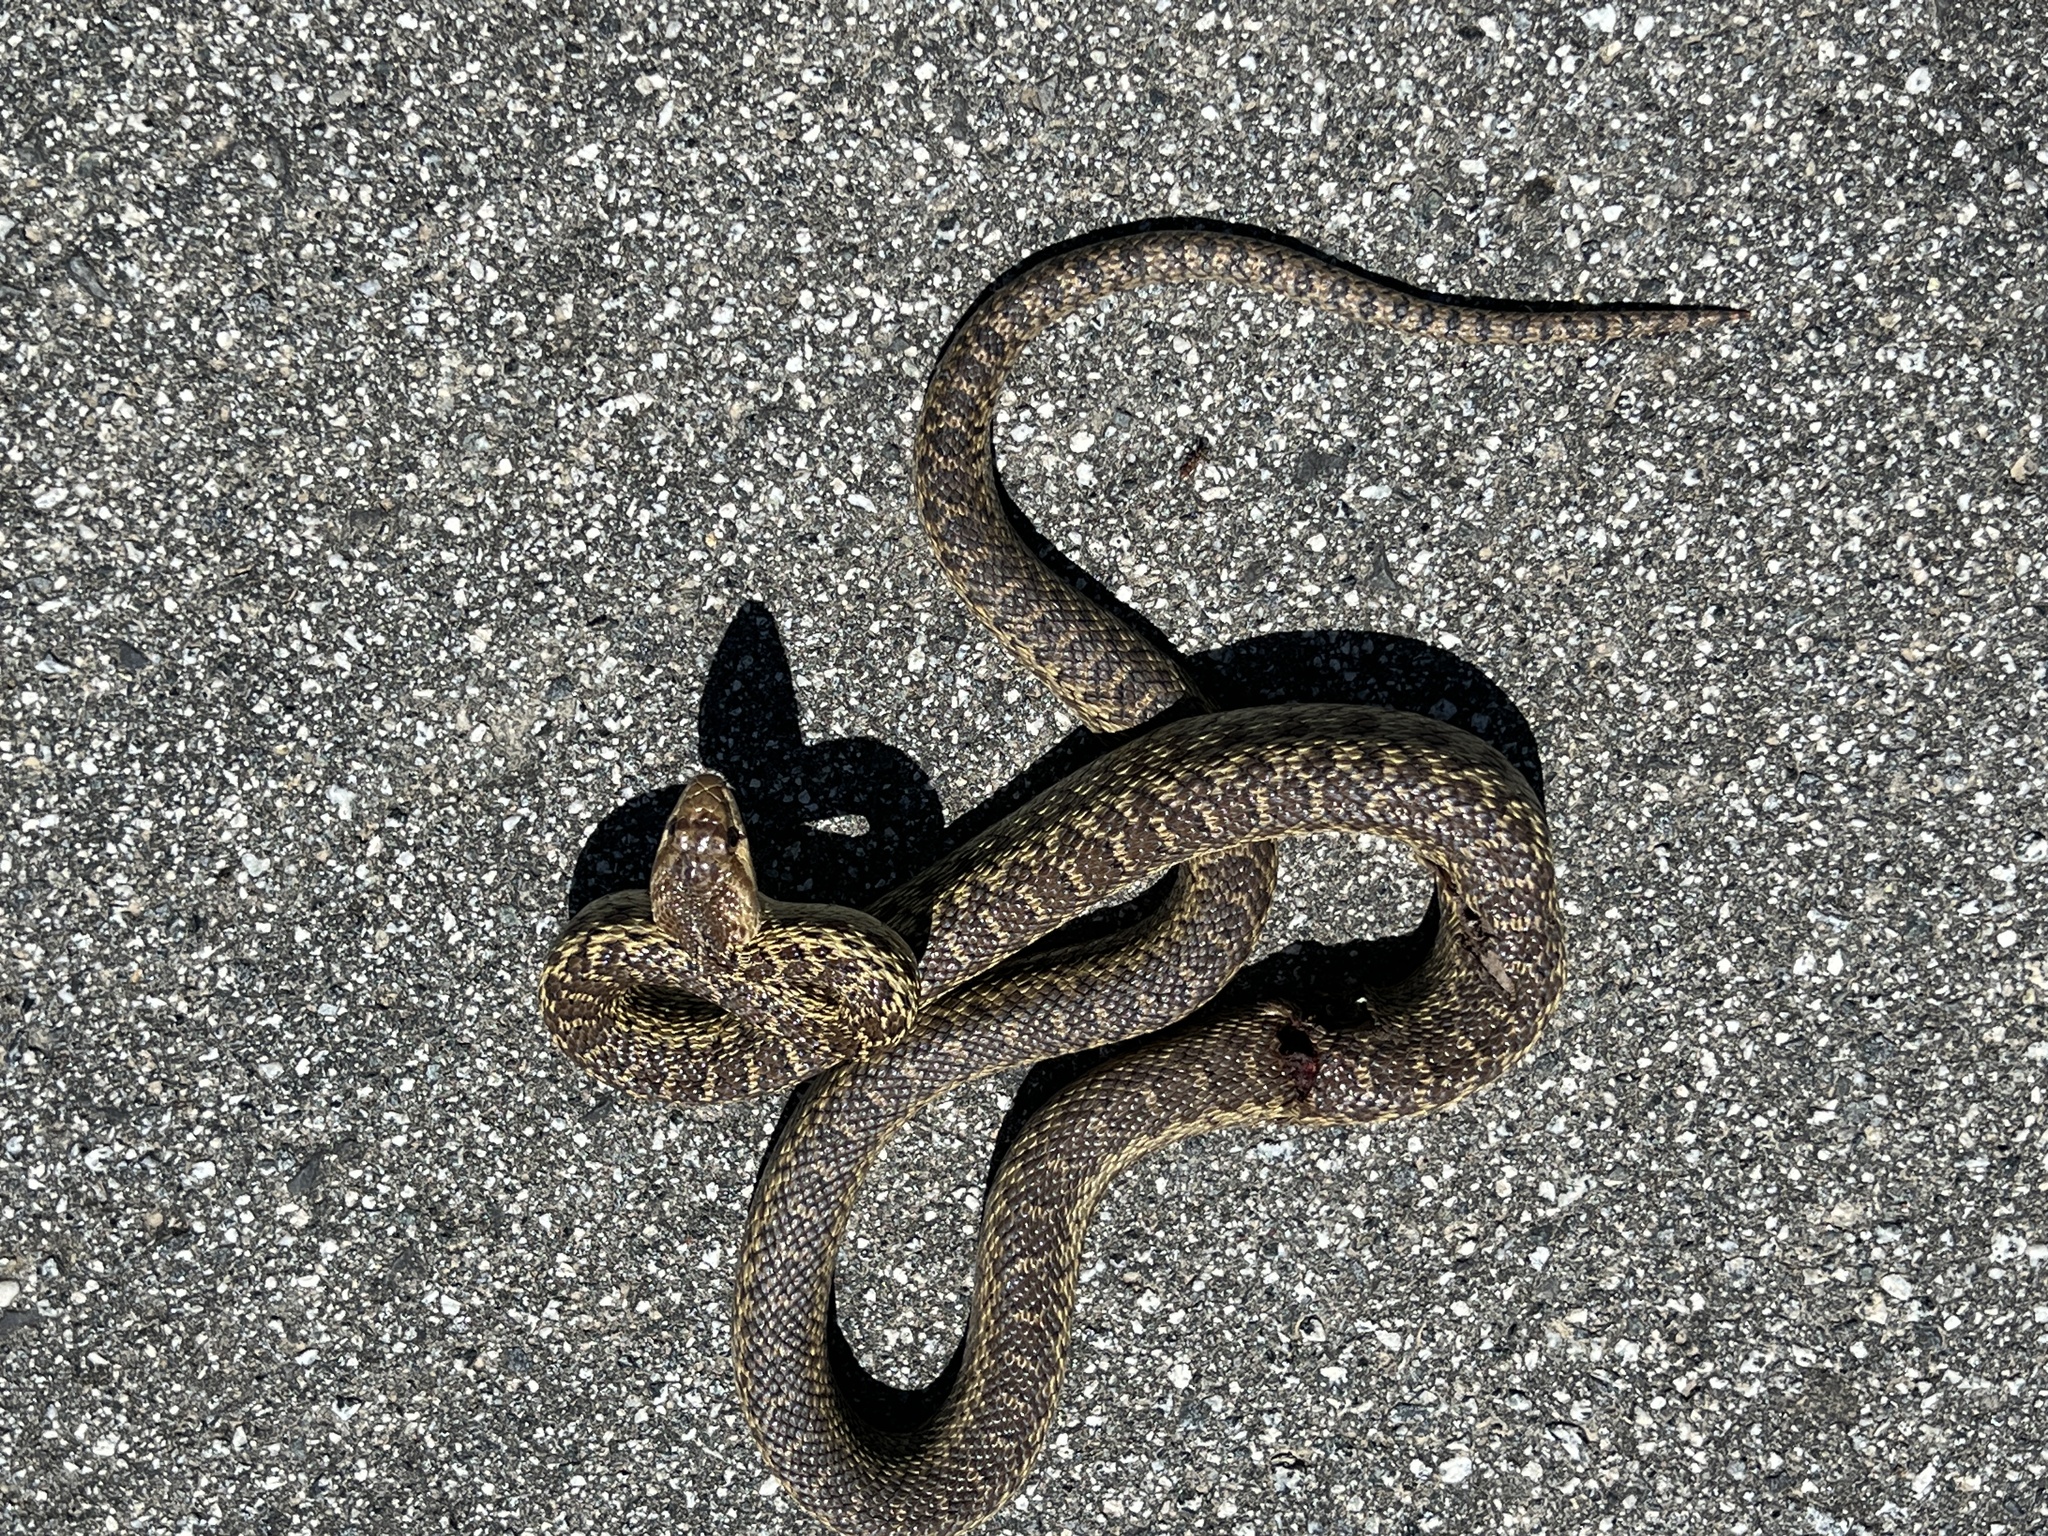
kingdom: Animalia
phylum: Chordata
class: Squamata
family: Colubridae
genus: Pituophis
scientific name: Pituophis catenifer
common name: Gopher snake
